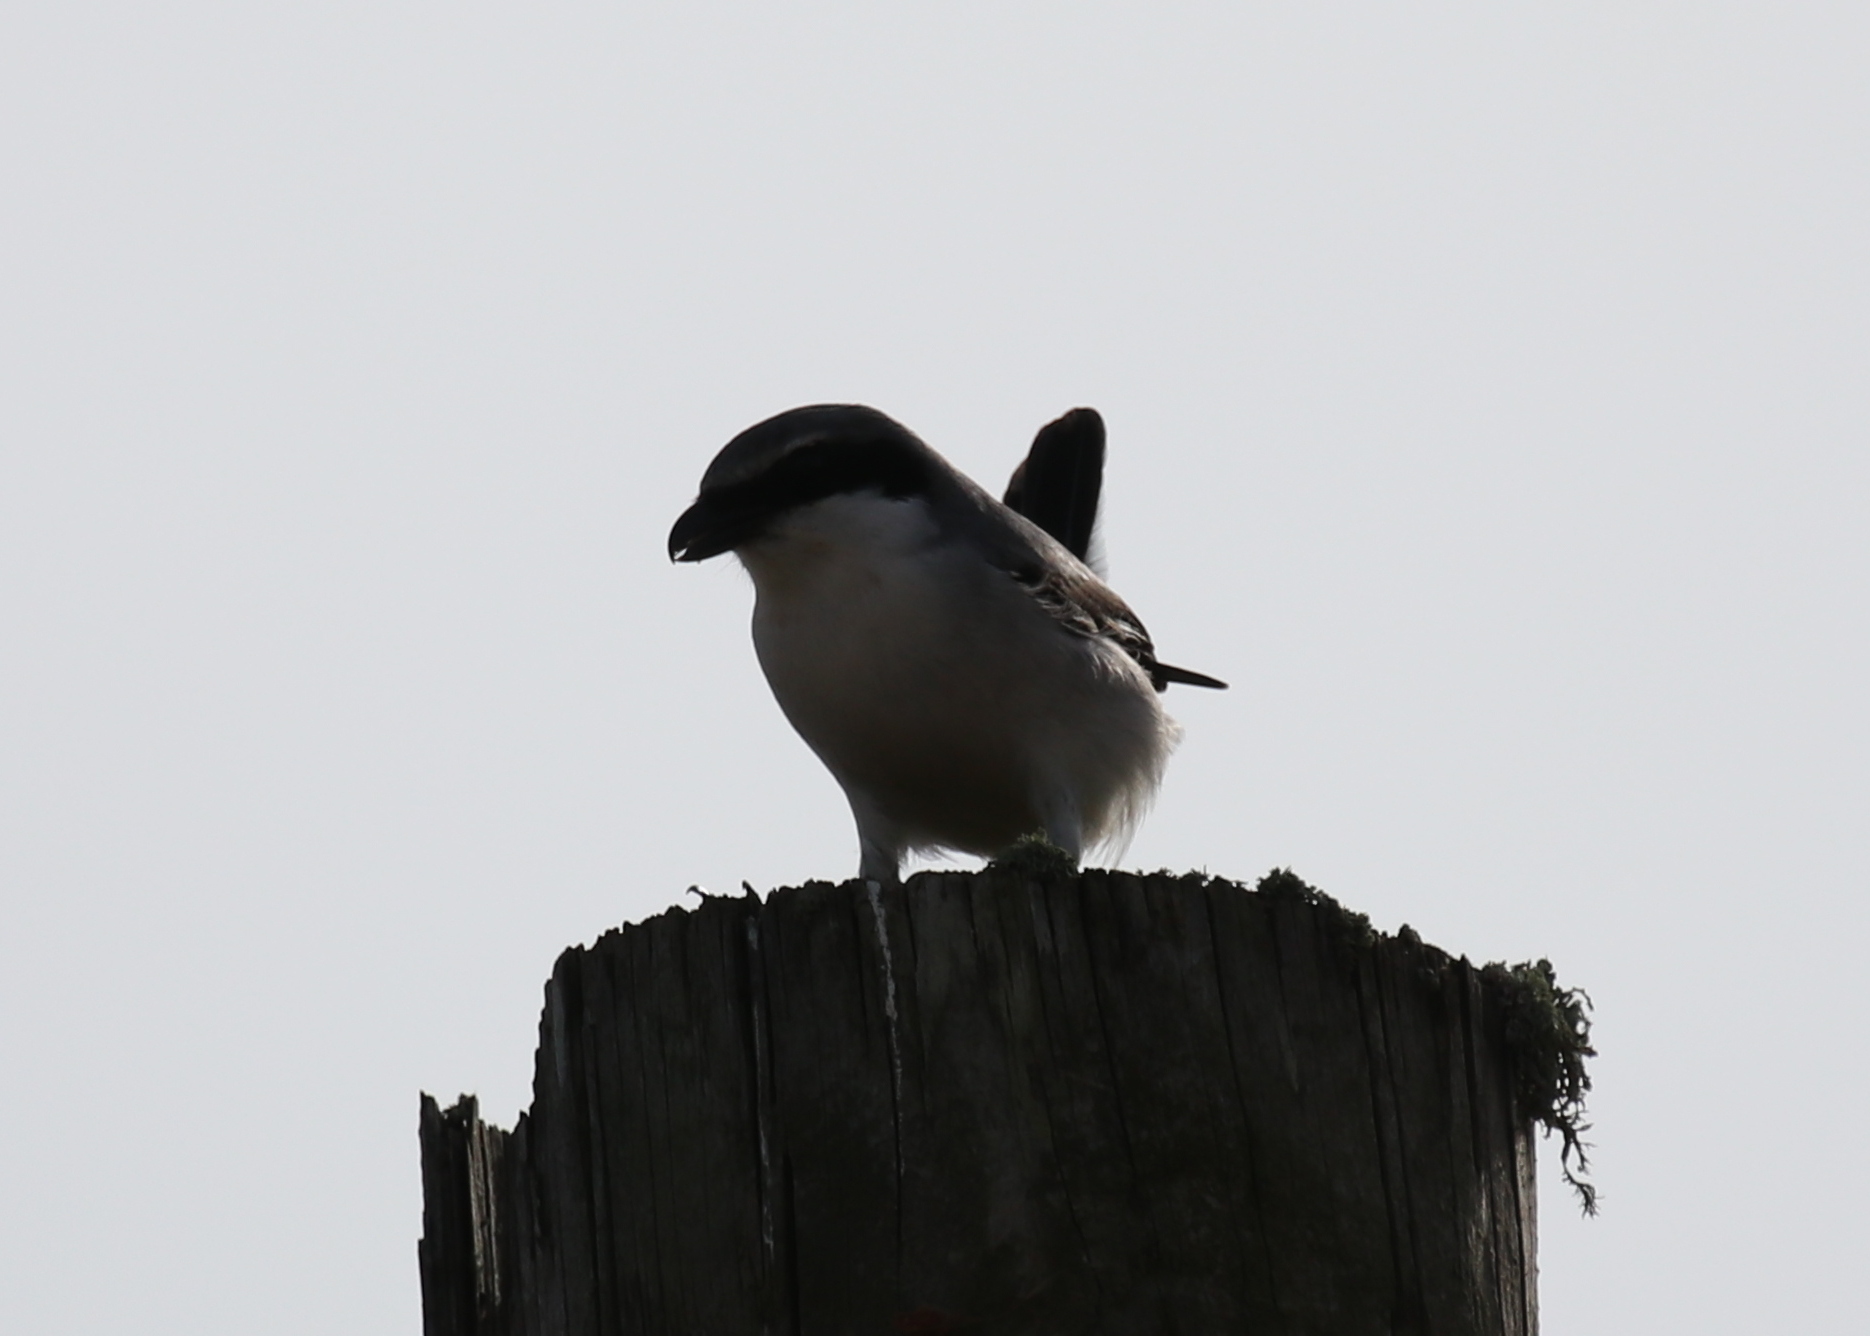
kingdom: Animalia
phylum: Chordata
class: Aves
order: Passeriformes
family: Laniidae
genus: Lanius
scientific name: Lanius ludovicianus
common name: Loggerhead shrike
